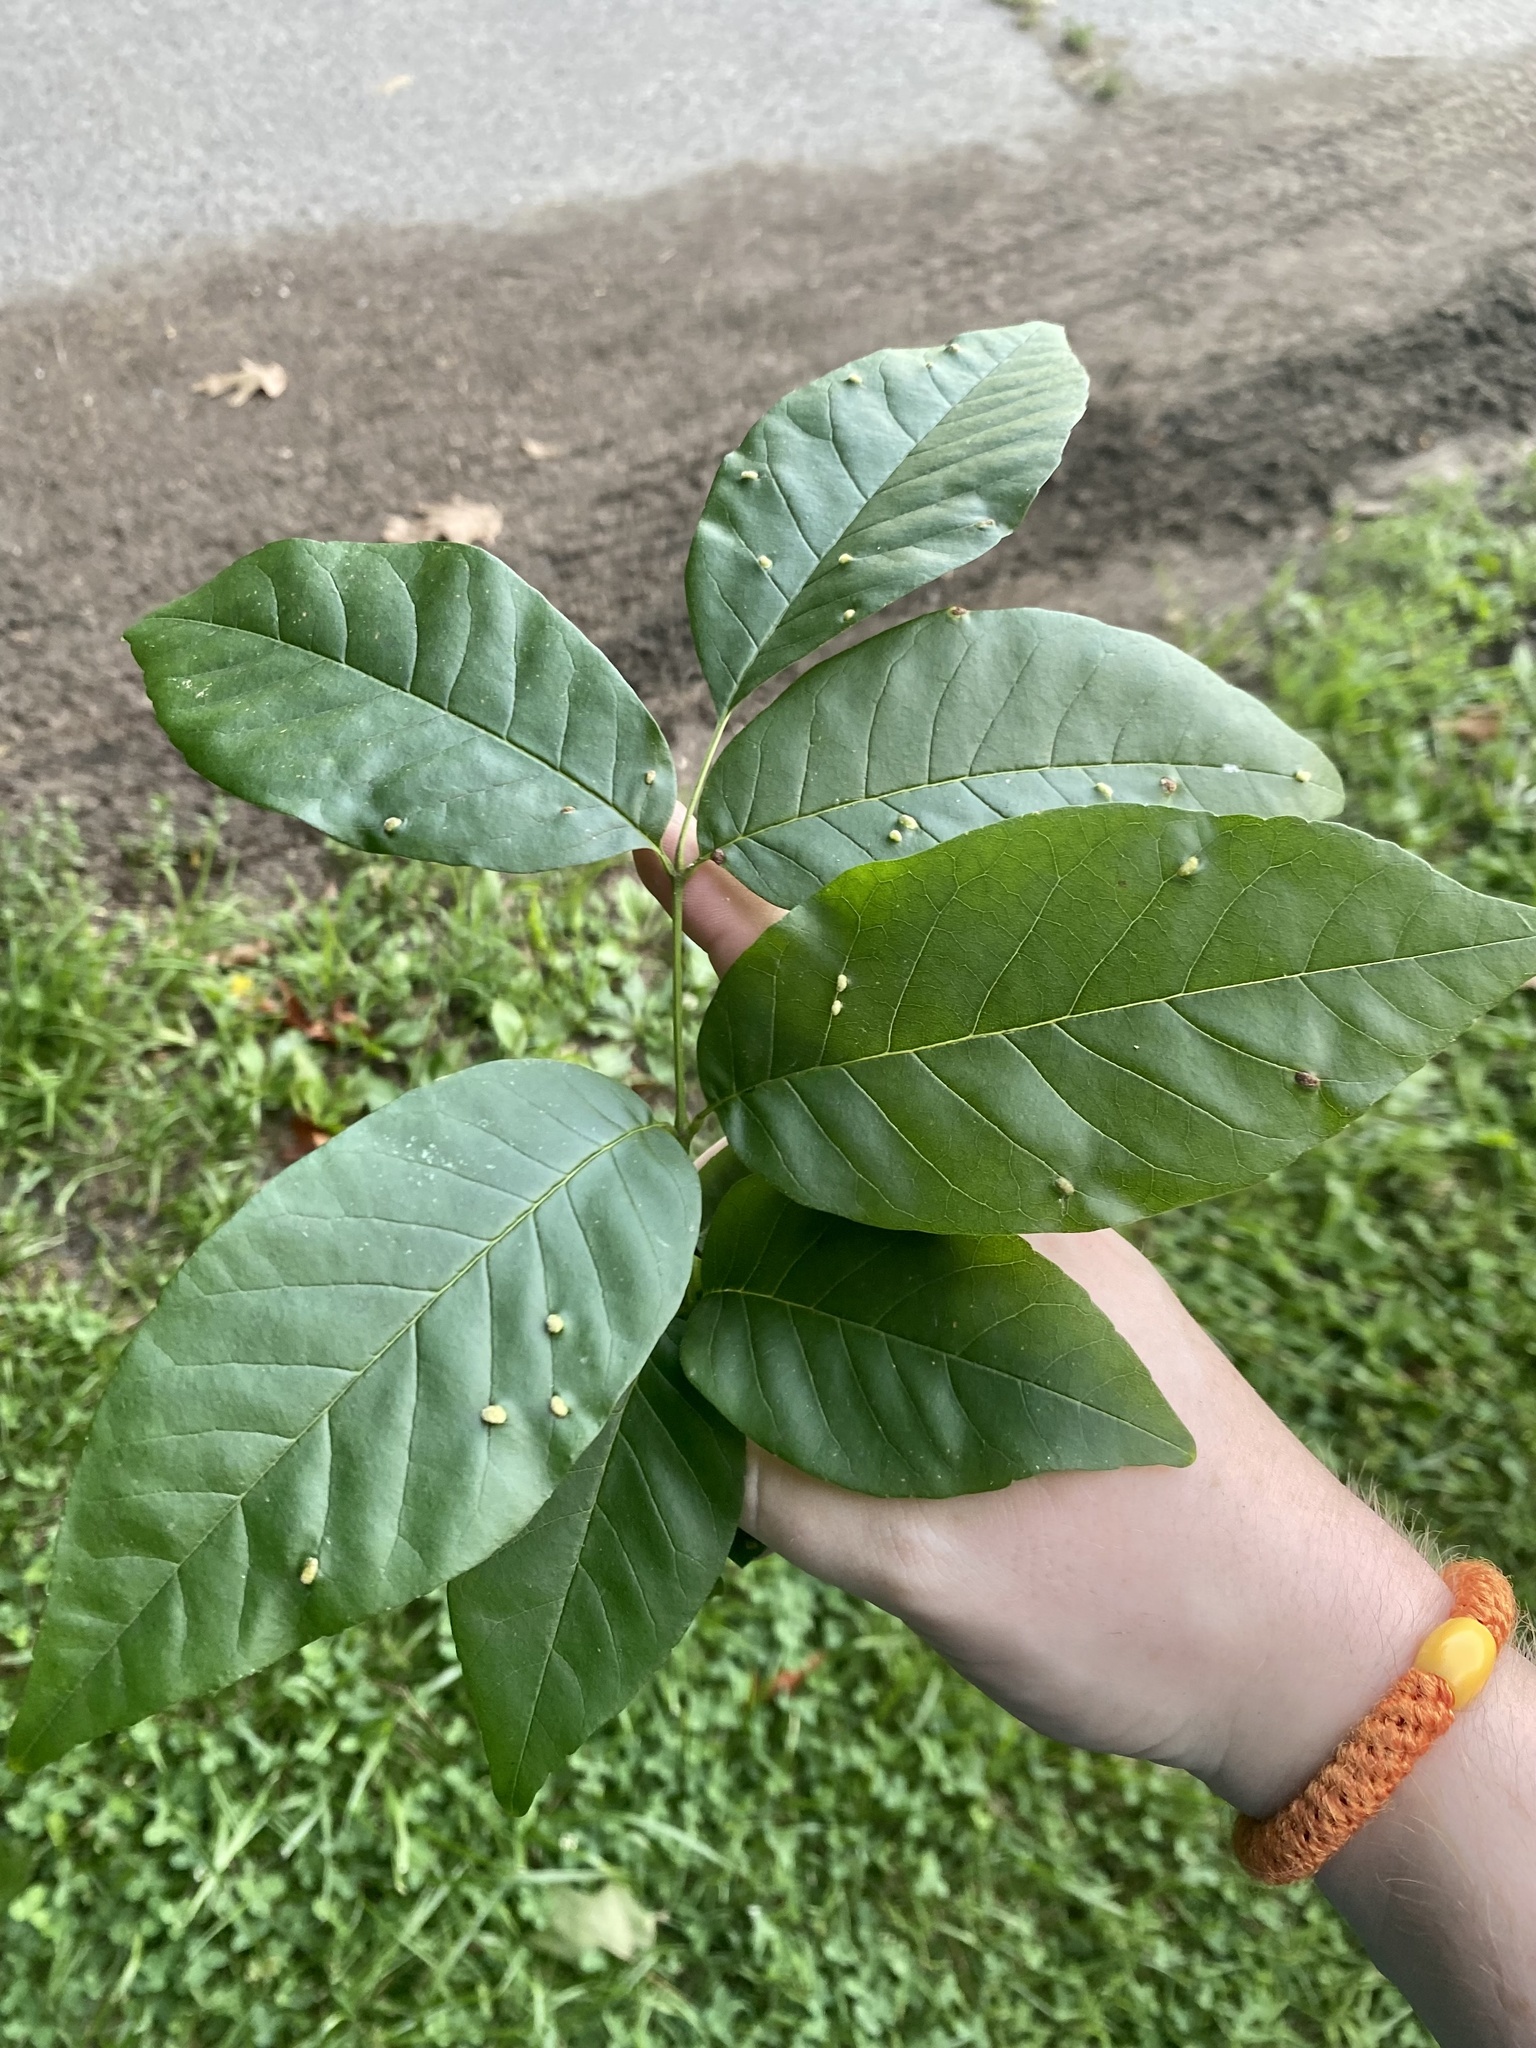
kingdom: Animalia
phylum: Arthropoda
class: Arachnida
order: Trombidiformes
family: Eriophyidae
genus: Aceria
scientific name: Aceria fraxinicola
